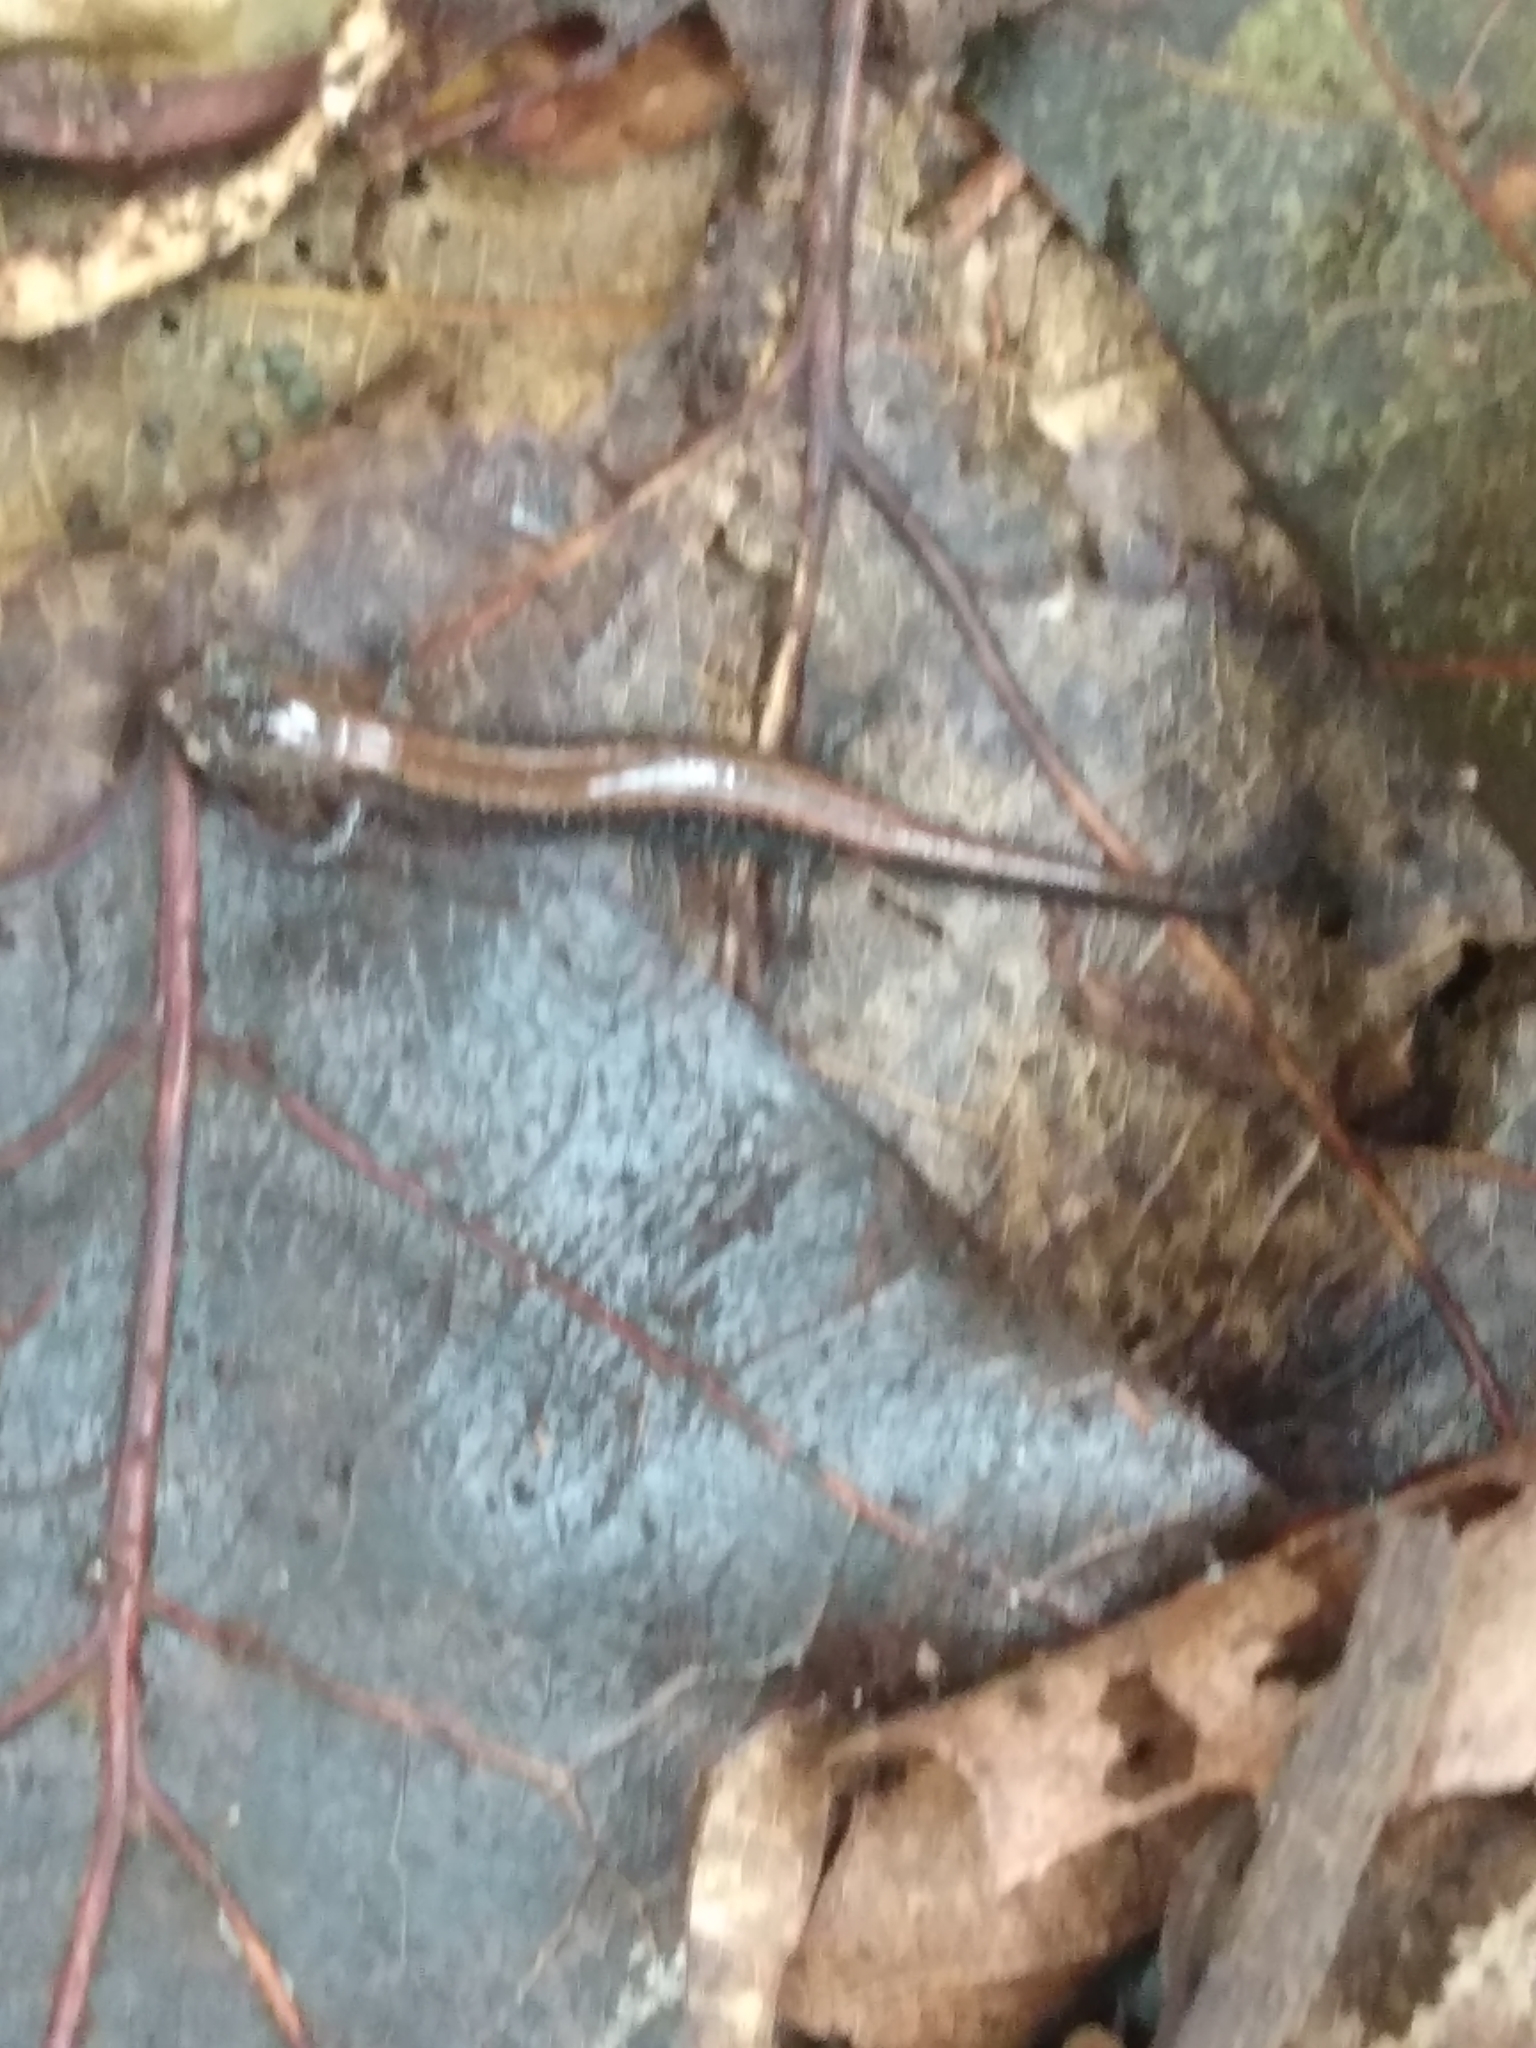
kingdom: Animalia
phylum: Chordata
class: Amphibia
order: Caudata
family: Plethodontidae
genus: Plethodon
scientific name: Plethodon cinereus
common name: Redback salamander
